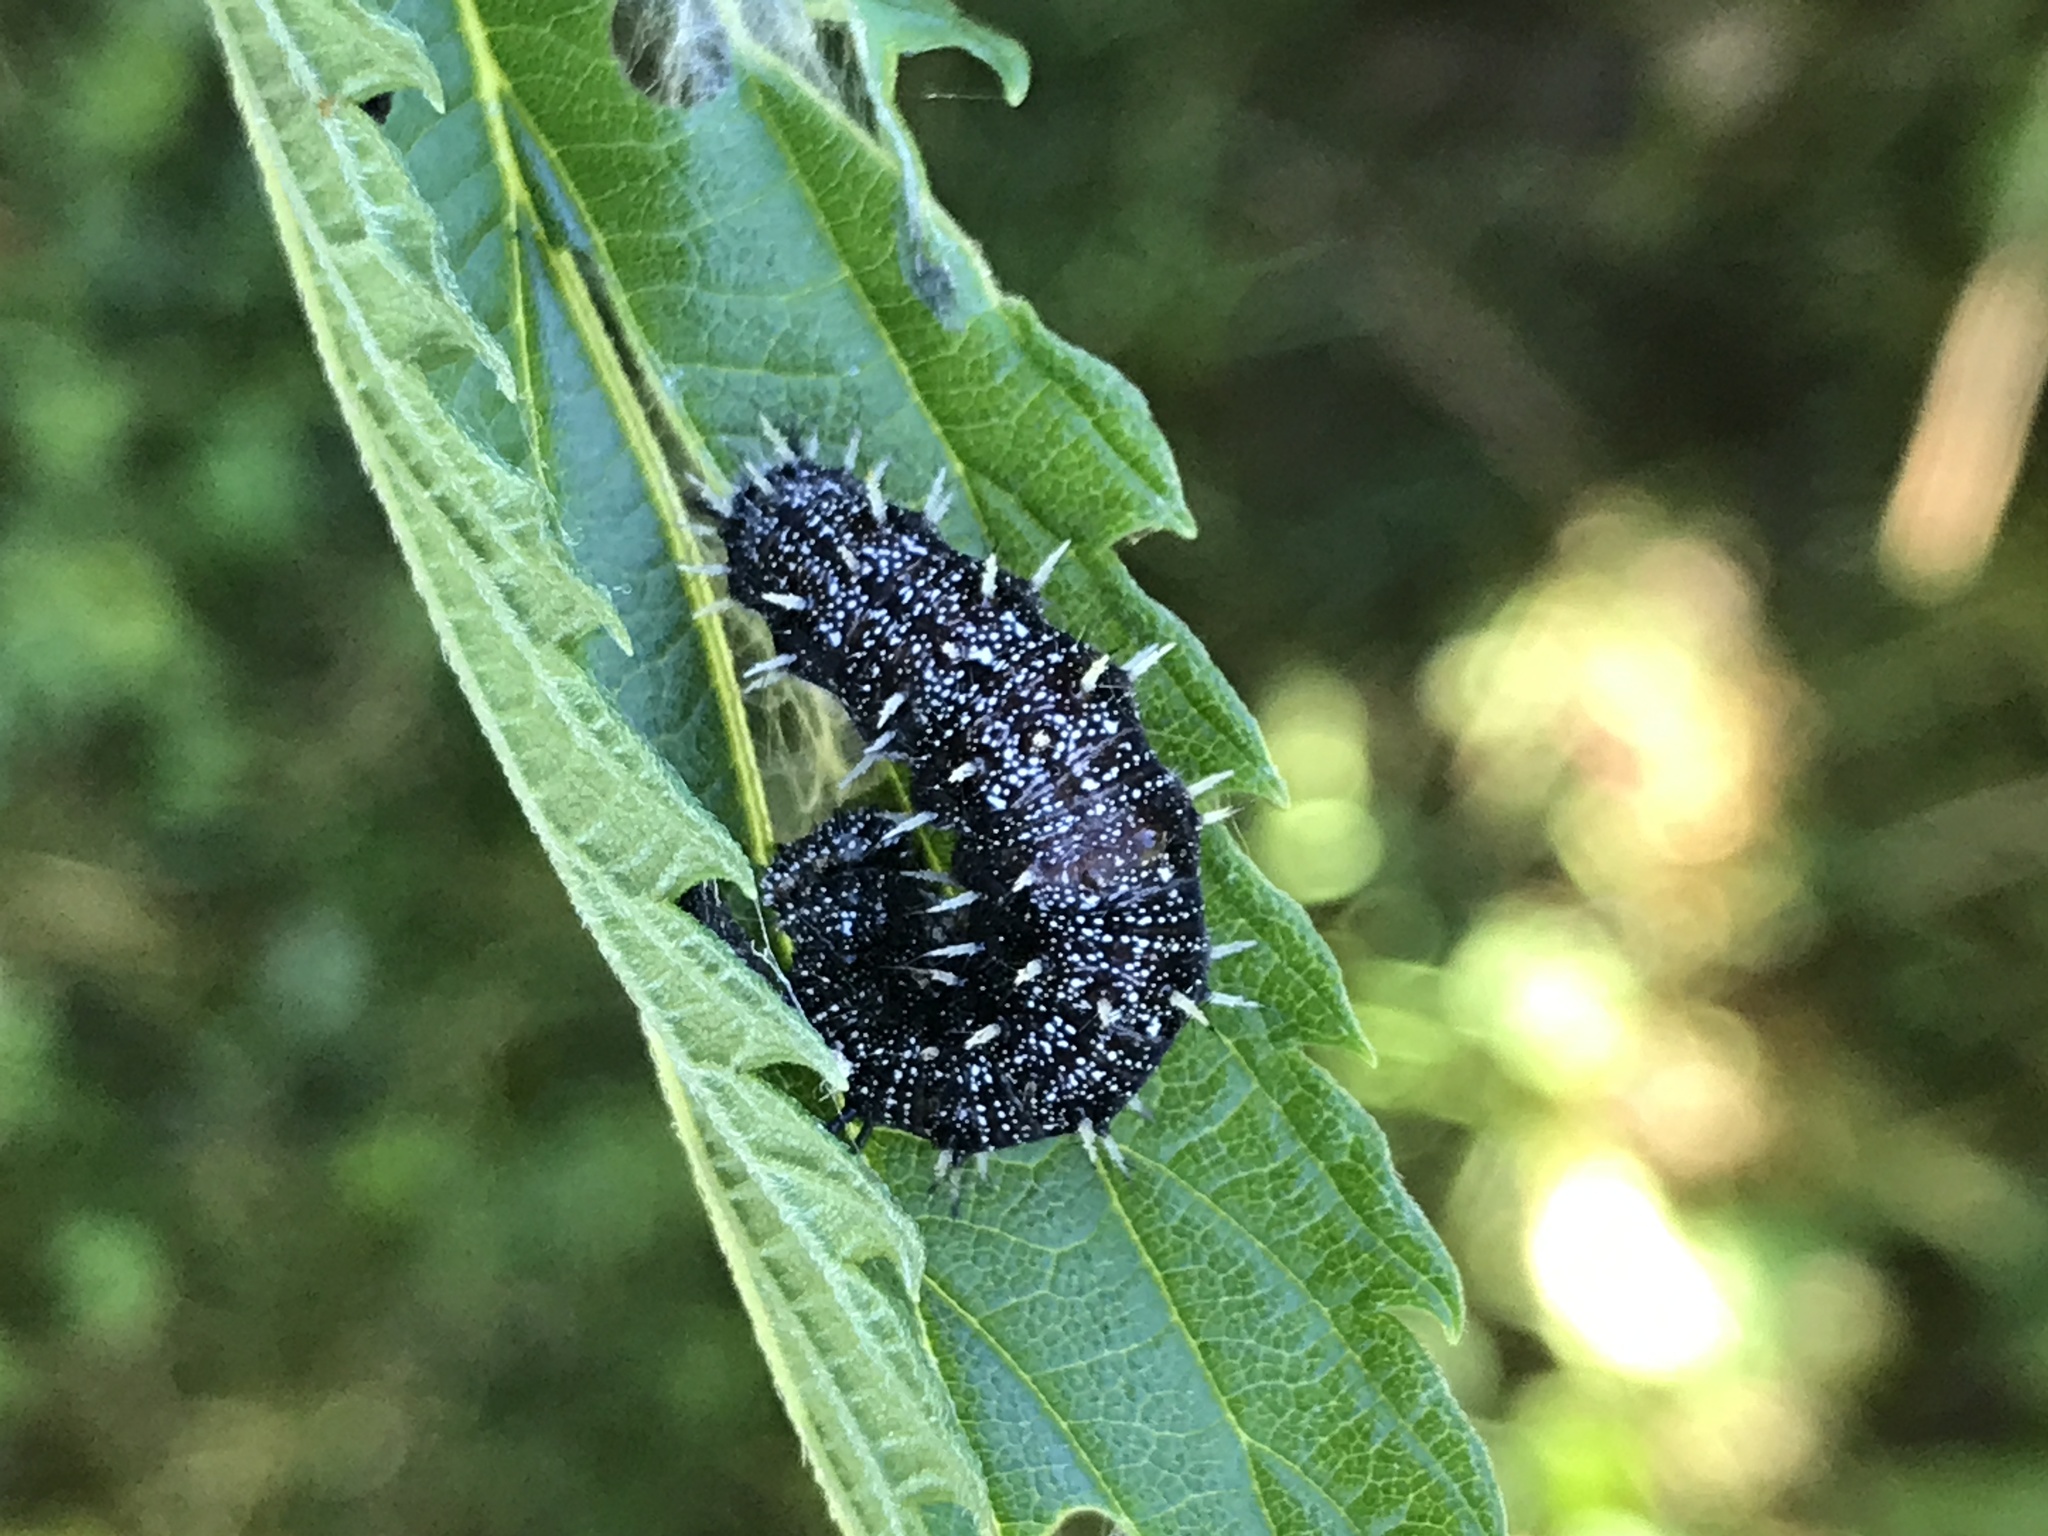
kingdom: Animalia
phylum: Arthropoda
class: Insecta
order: Lepidoptera
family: Nymphalidae
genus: Vanessa
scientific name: Vanessa atalanta
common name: Red admiral
